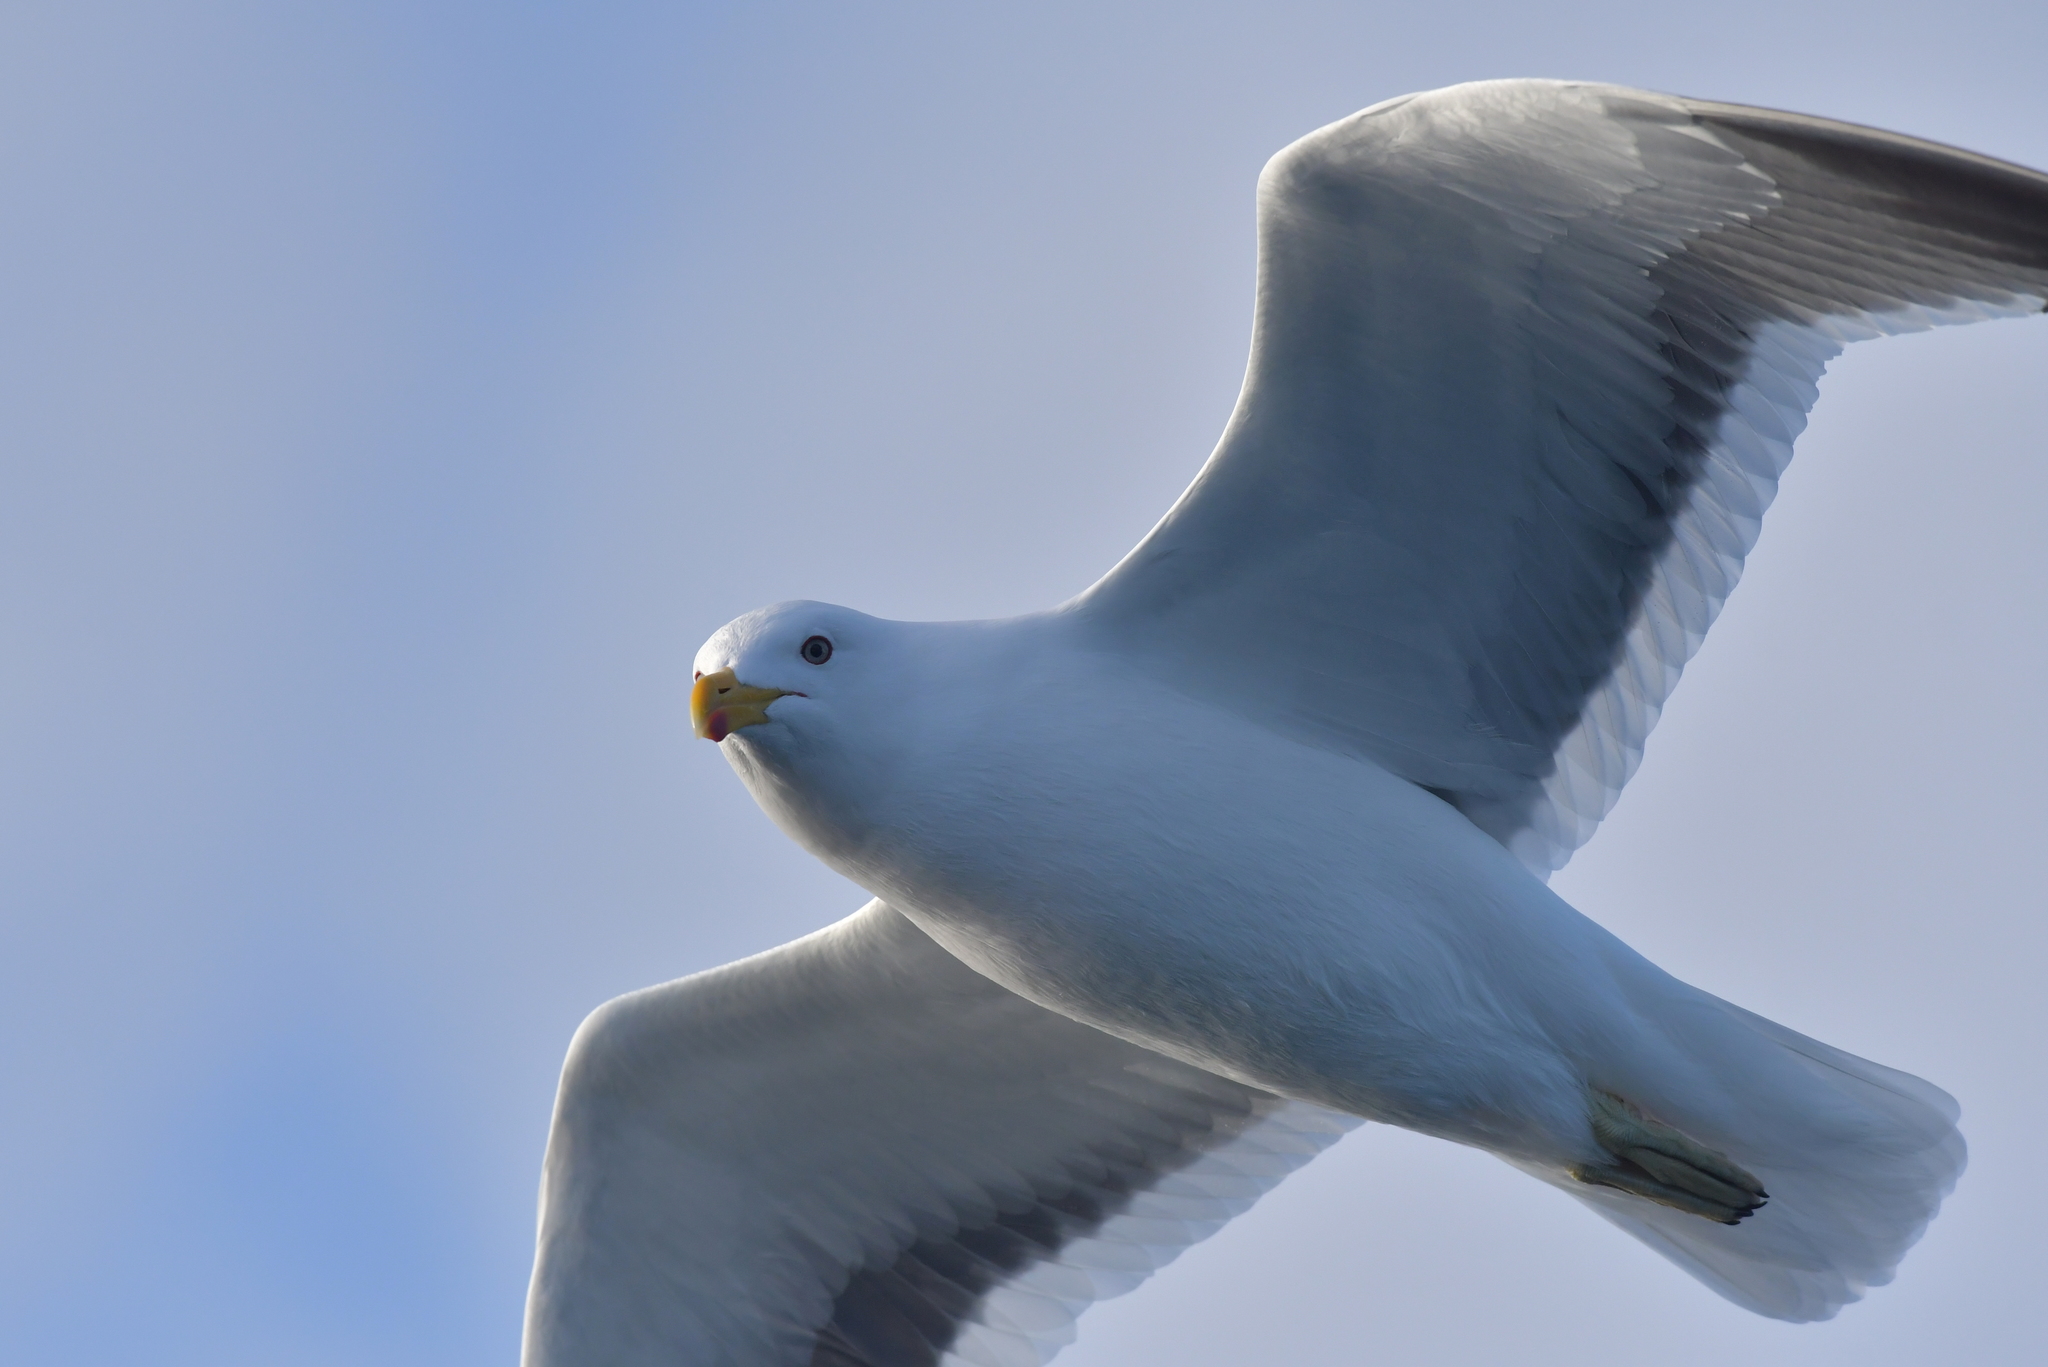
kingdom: Animalia
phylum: Chordata
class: Aves
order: Charadriiformes
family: Laridae
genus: Larus
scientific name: Larus dominicanus
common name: Kelp gull
